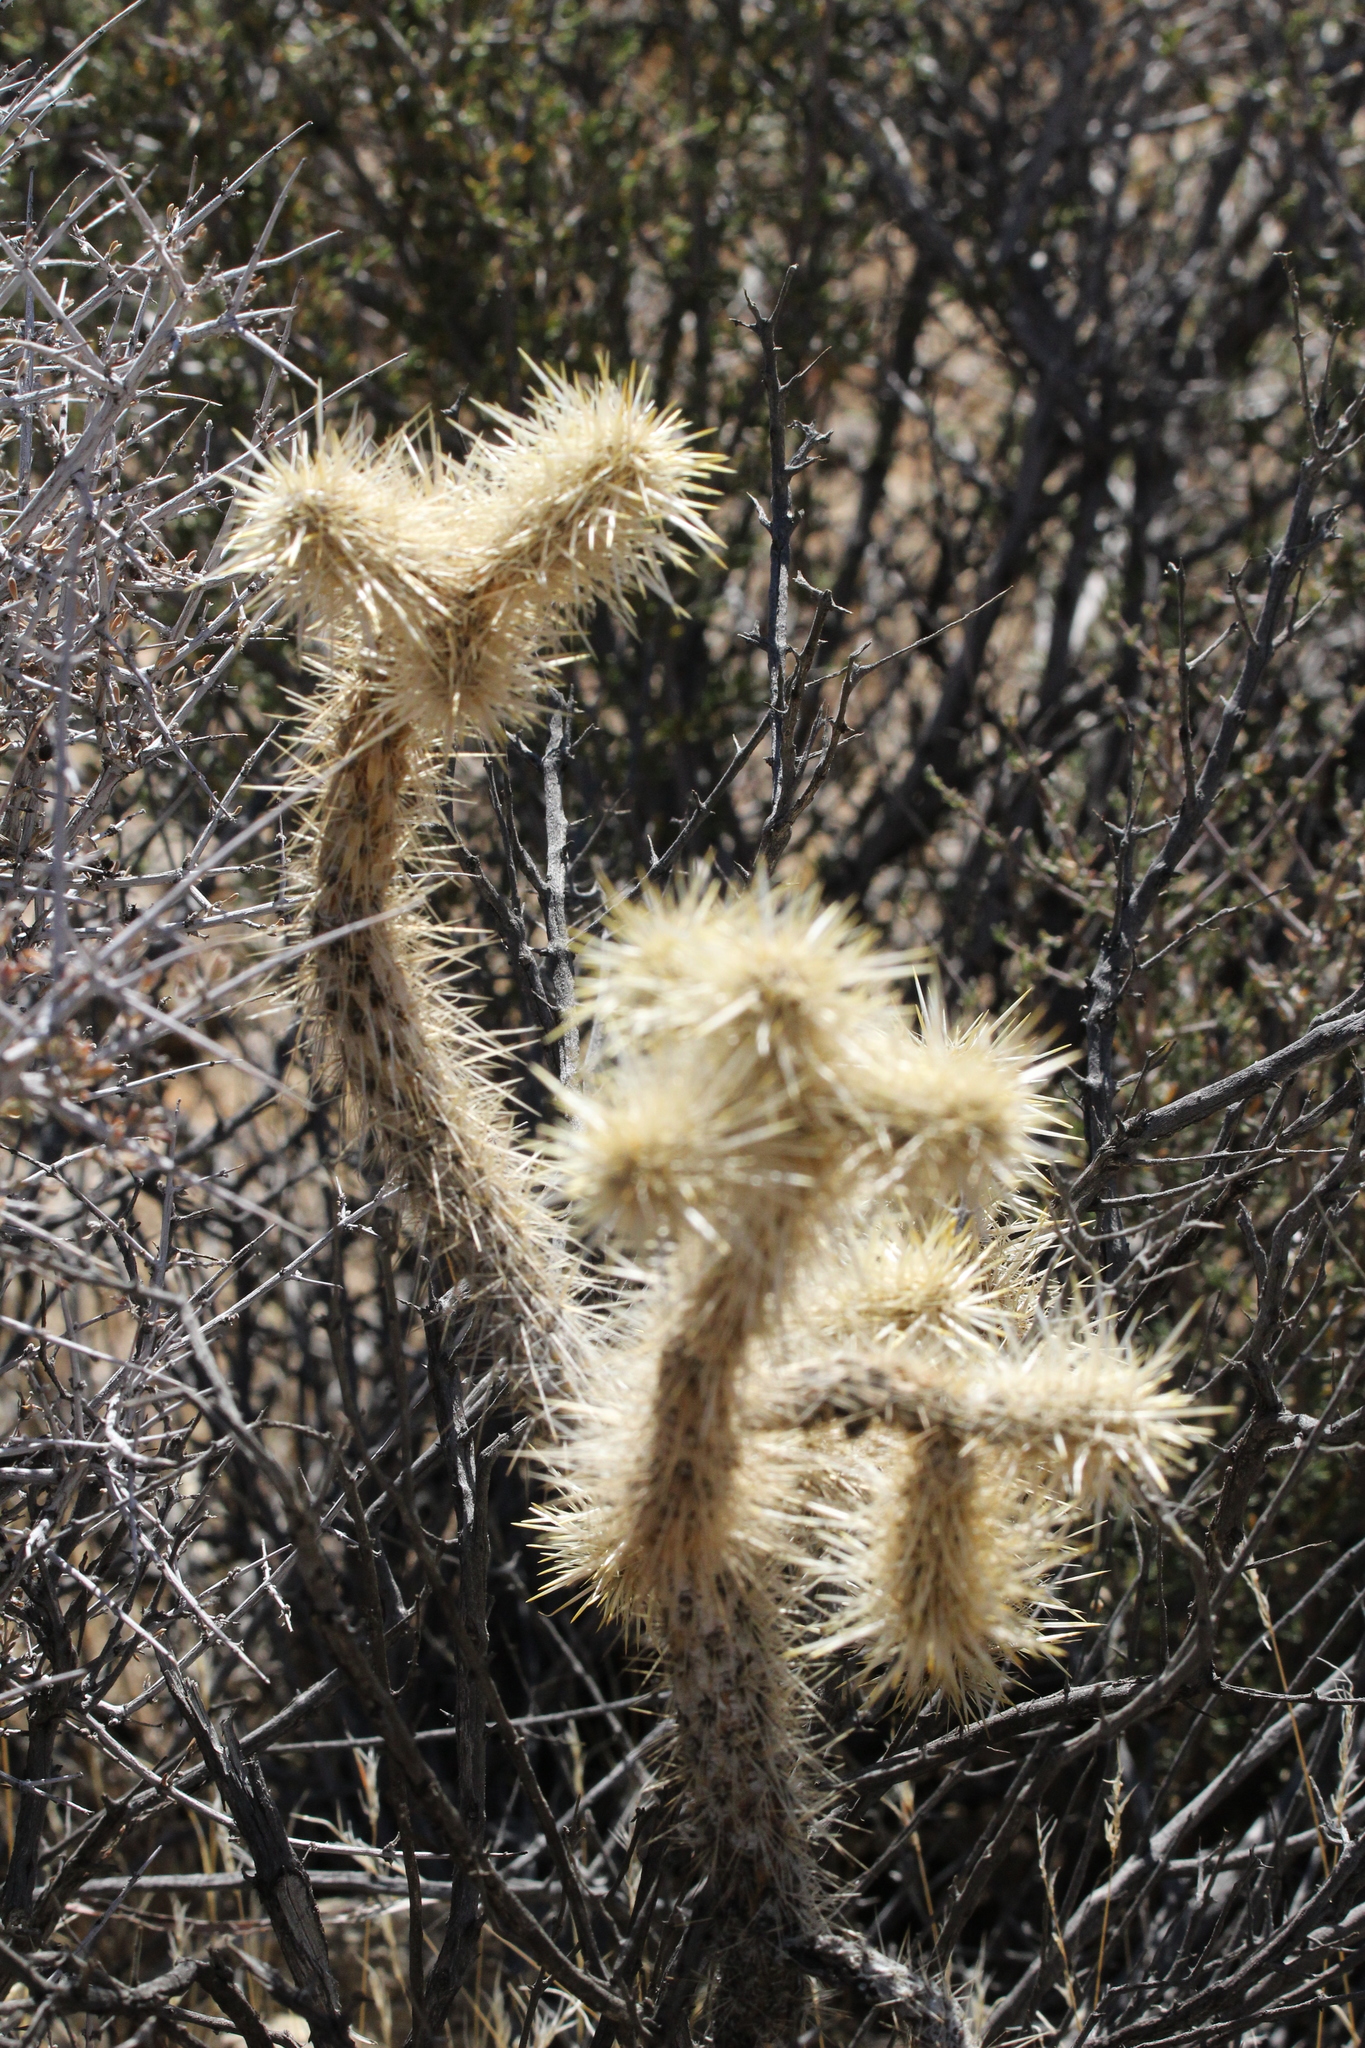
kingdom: Plantae
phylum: Tracheophyta
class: Magnoliopsida
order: Caryophyllales
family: Cactaceae
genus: Cylindropuntia
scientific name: Cylindropuntia echinocarpa
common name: Ground cholla
